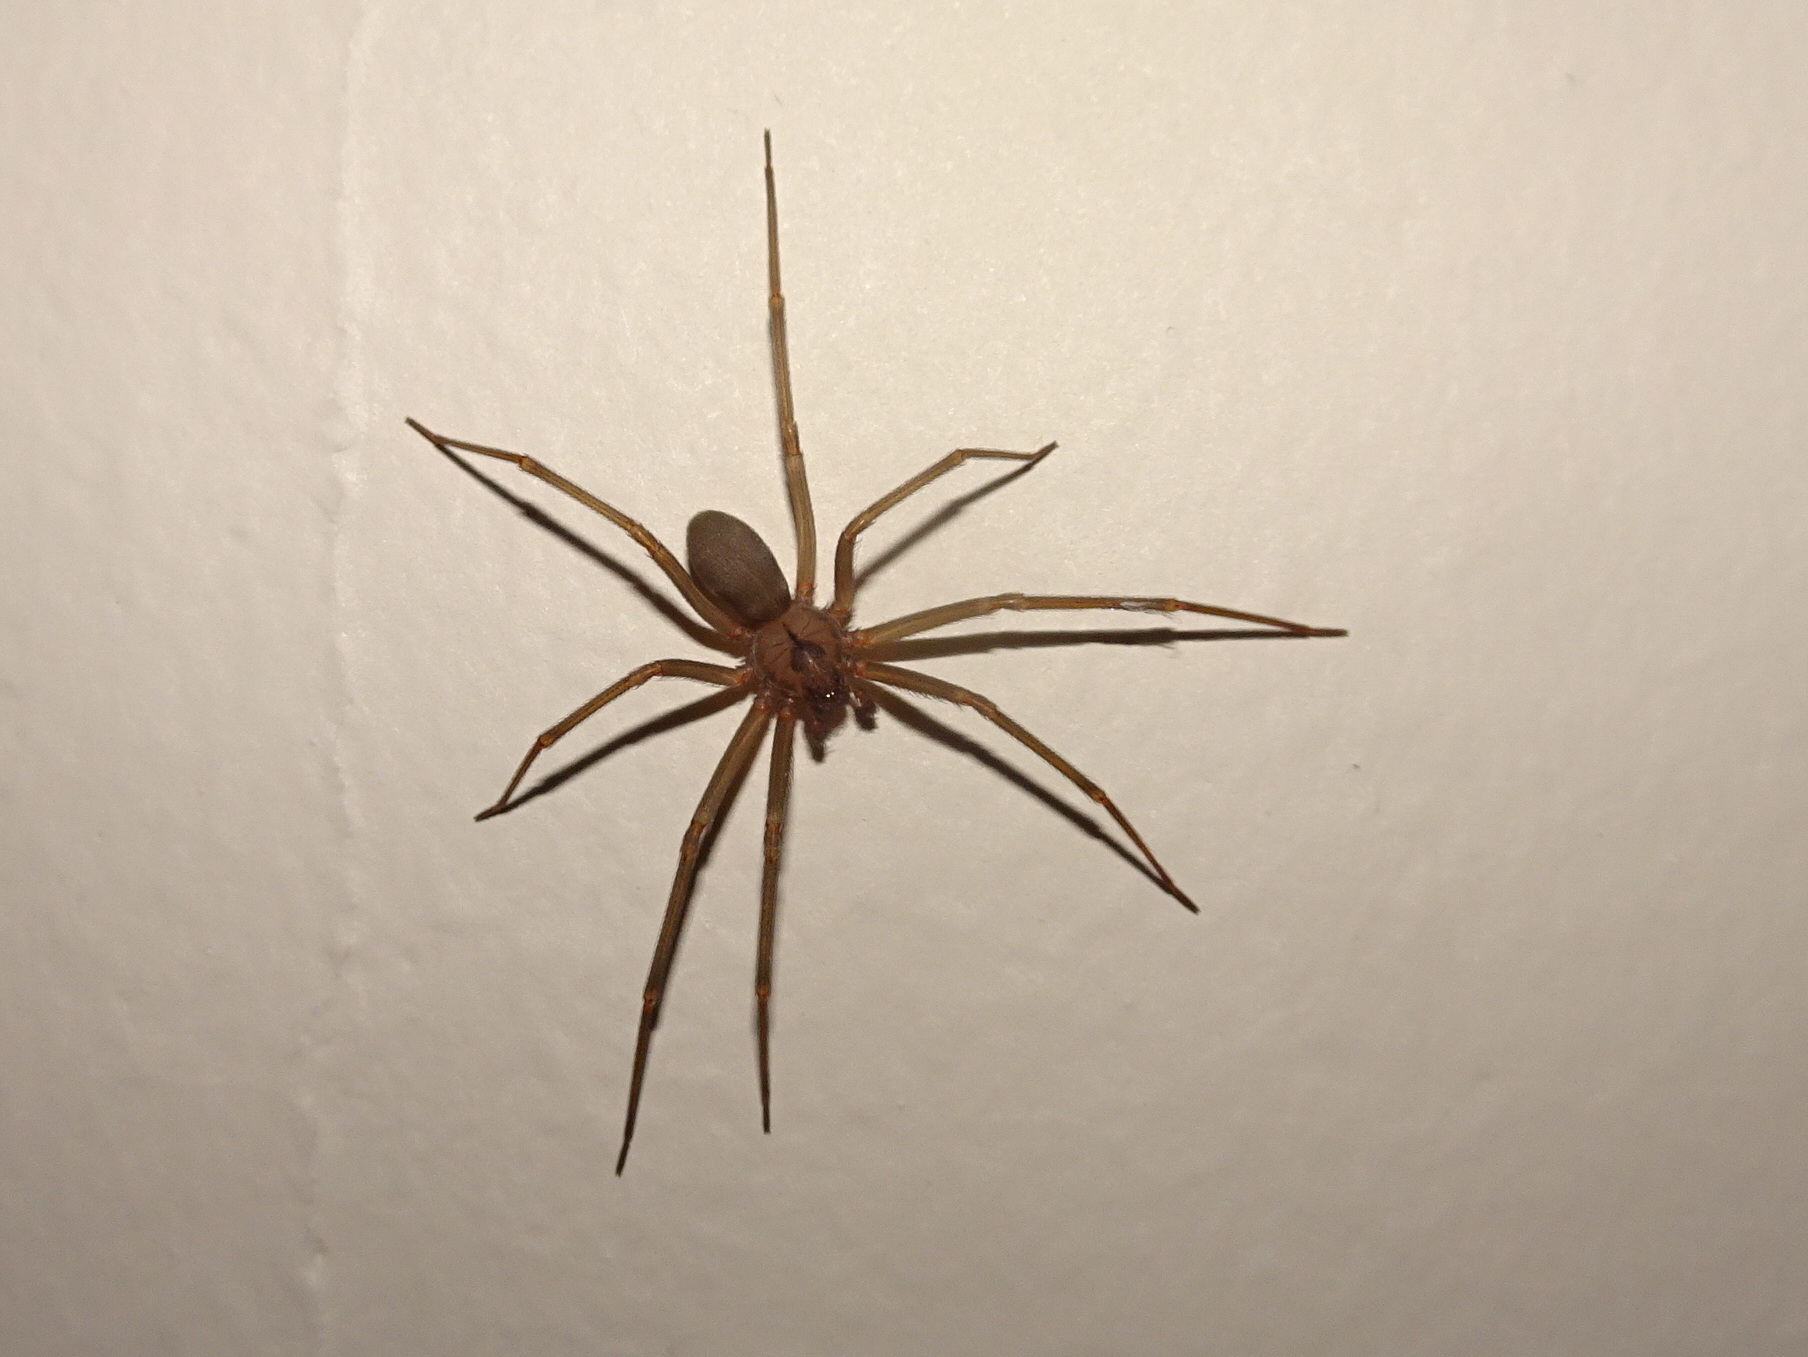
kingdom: Animalia
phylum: Arthropoda
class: Arachnida
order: Araneae
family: Sicariidae
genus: Loxosceles
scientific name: Loxosceles reclusa
